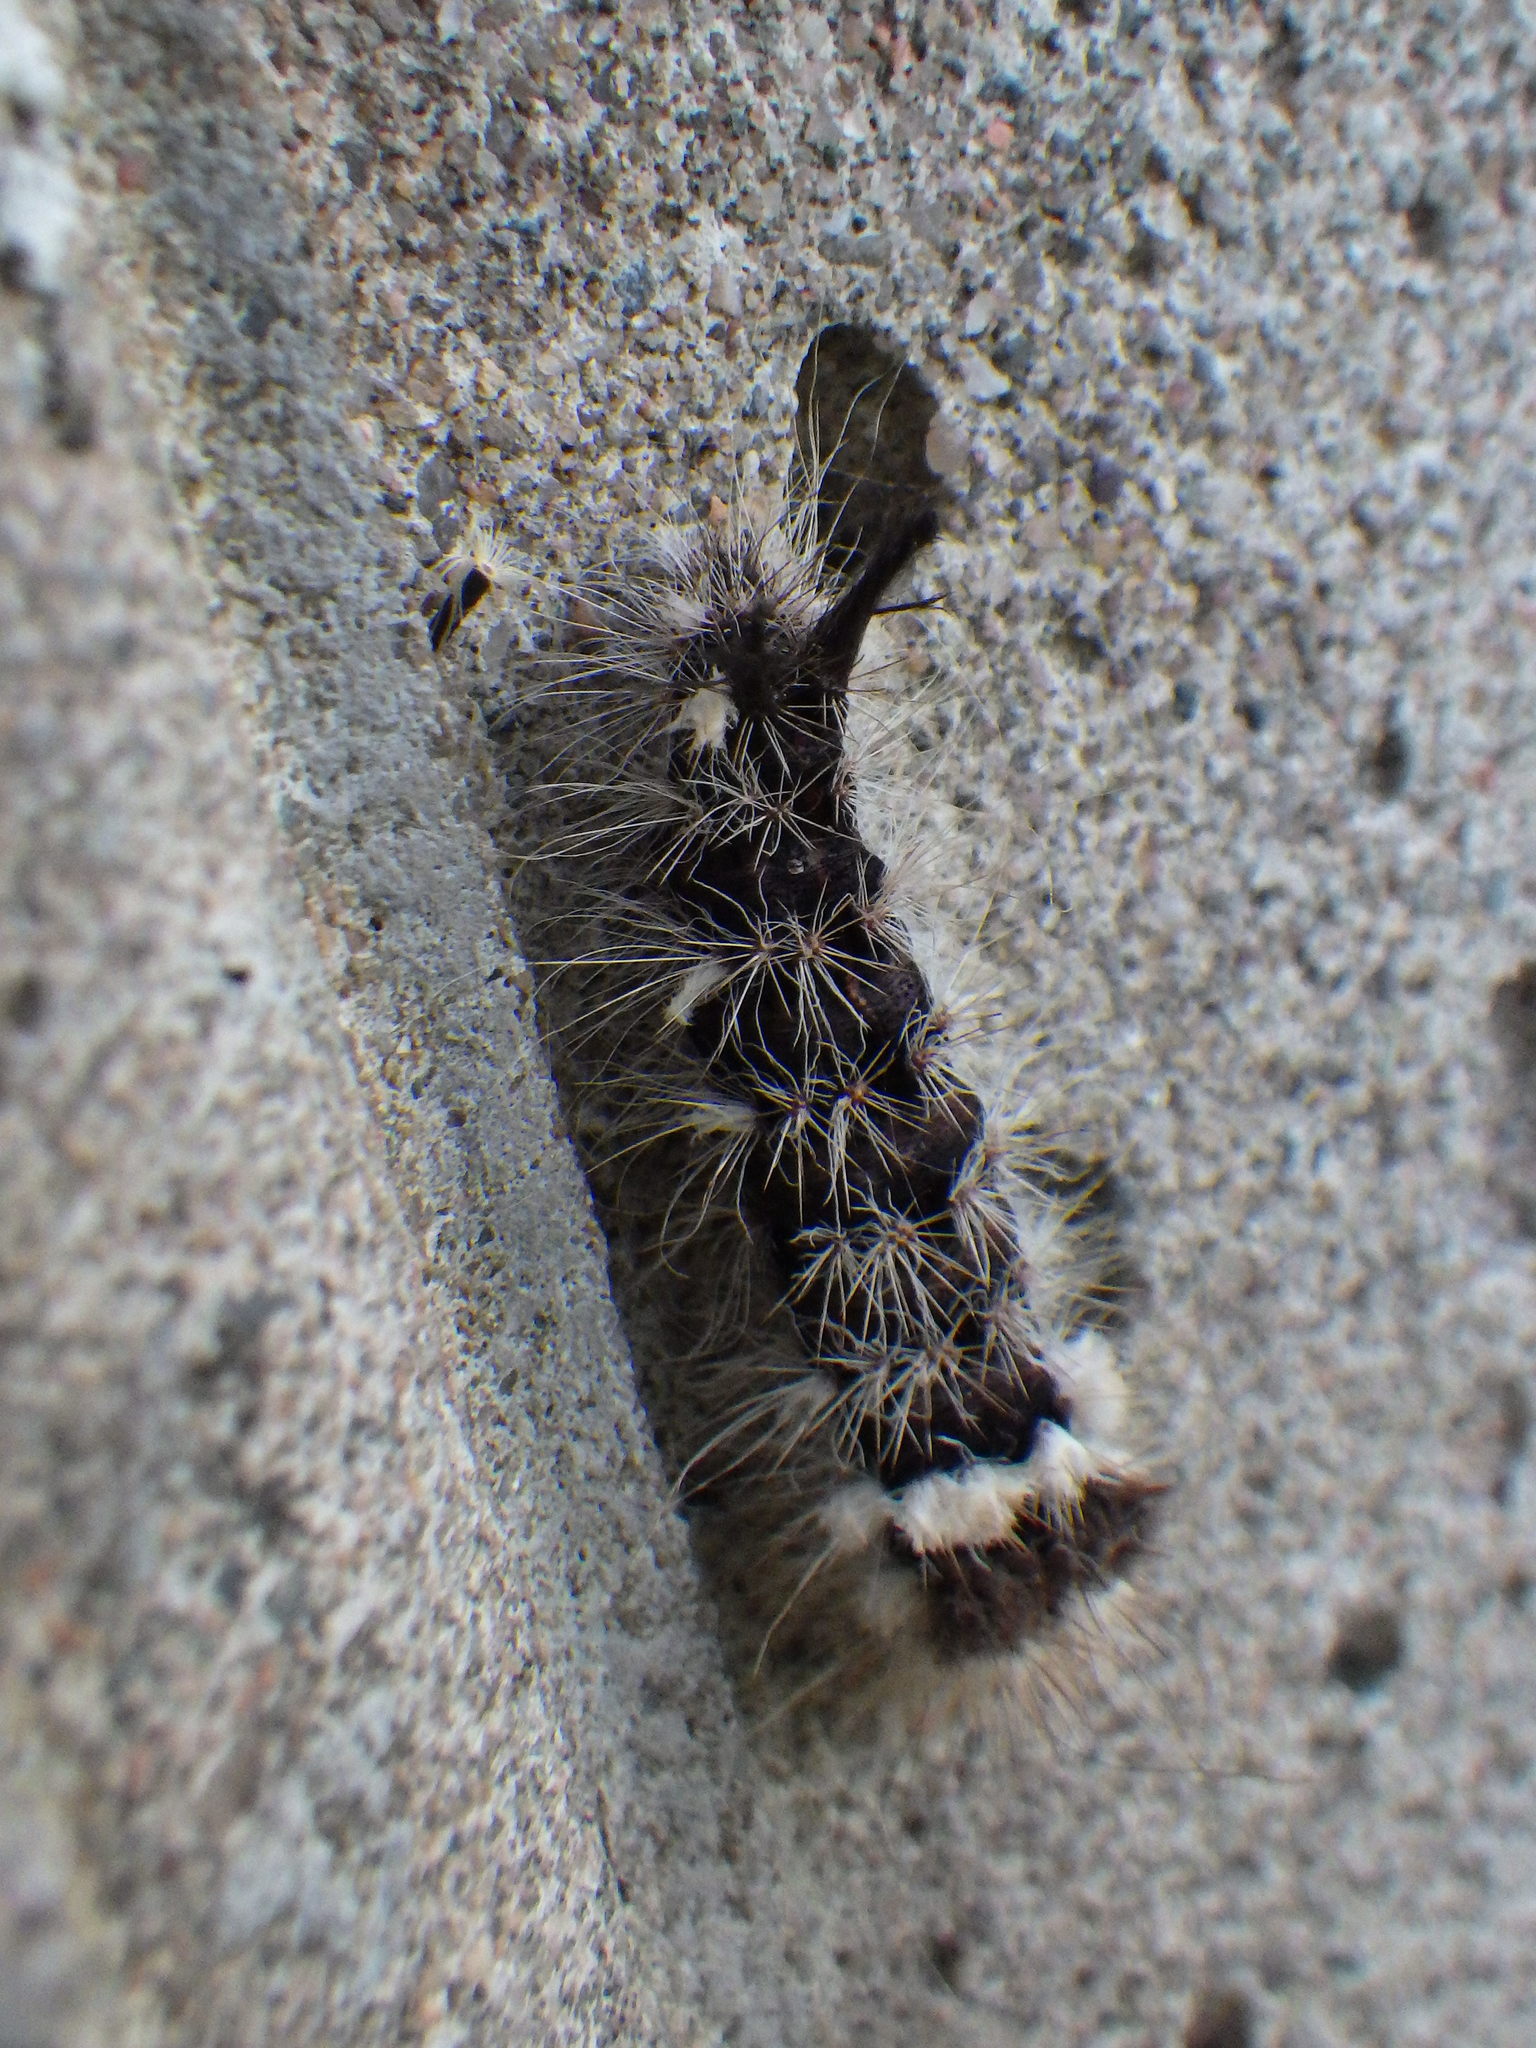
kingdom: Animalia
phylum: Arthropoda
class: Insecta
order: Lepidoptera
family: Noctuidae
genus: Acronicta
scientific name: Acronicta impleta
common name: Powdered dagger
